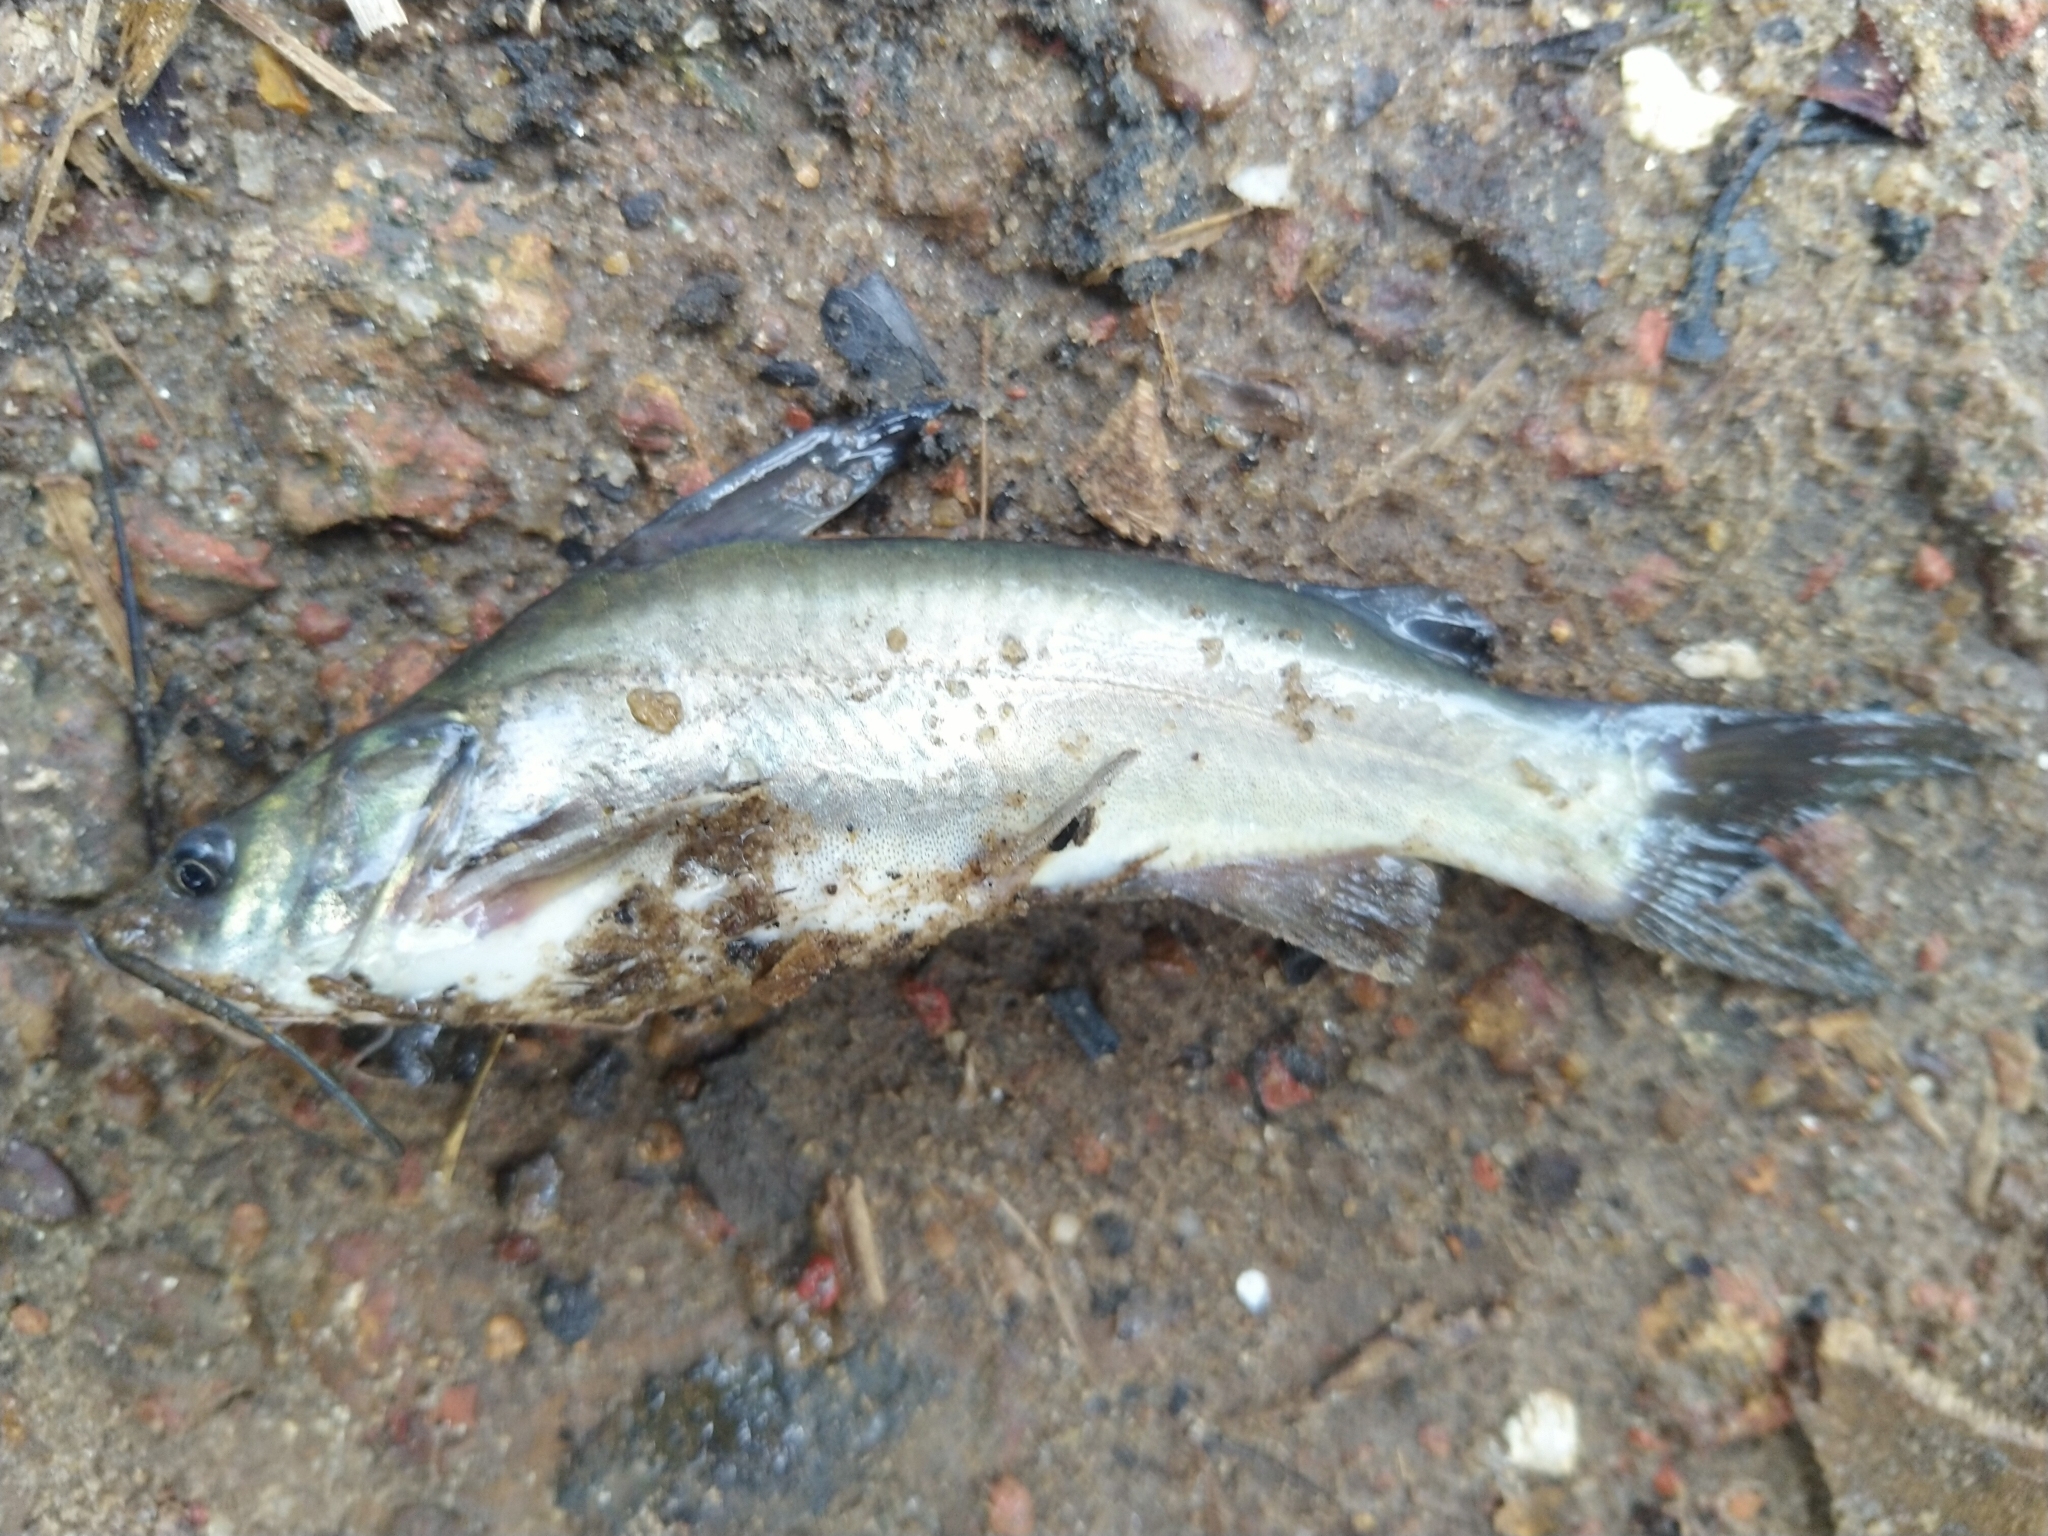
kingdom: Animalia
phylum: Chordata
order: Siluriformes
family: Bagridae
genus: Mystus
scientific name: Mystus gulio
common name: Long whiskers catfish
